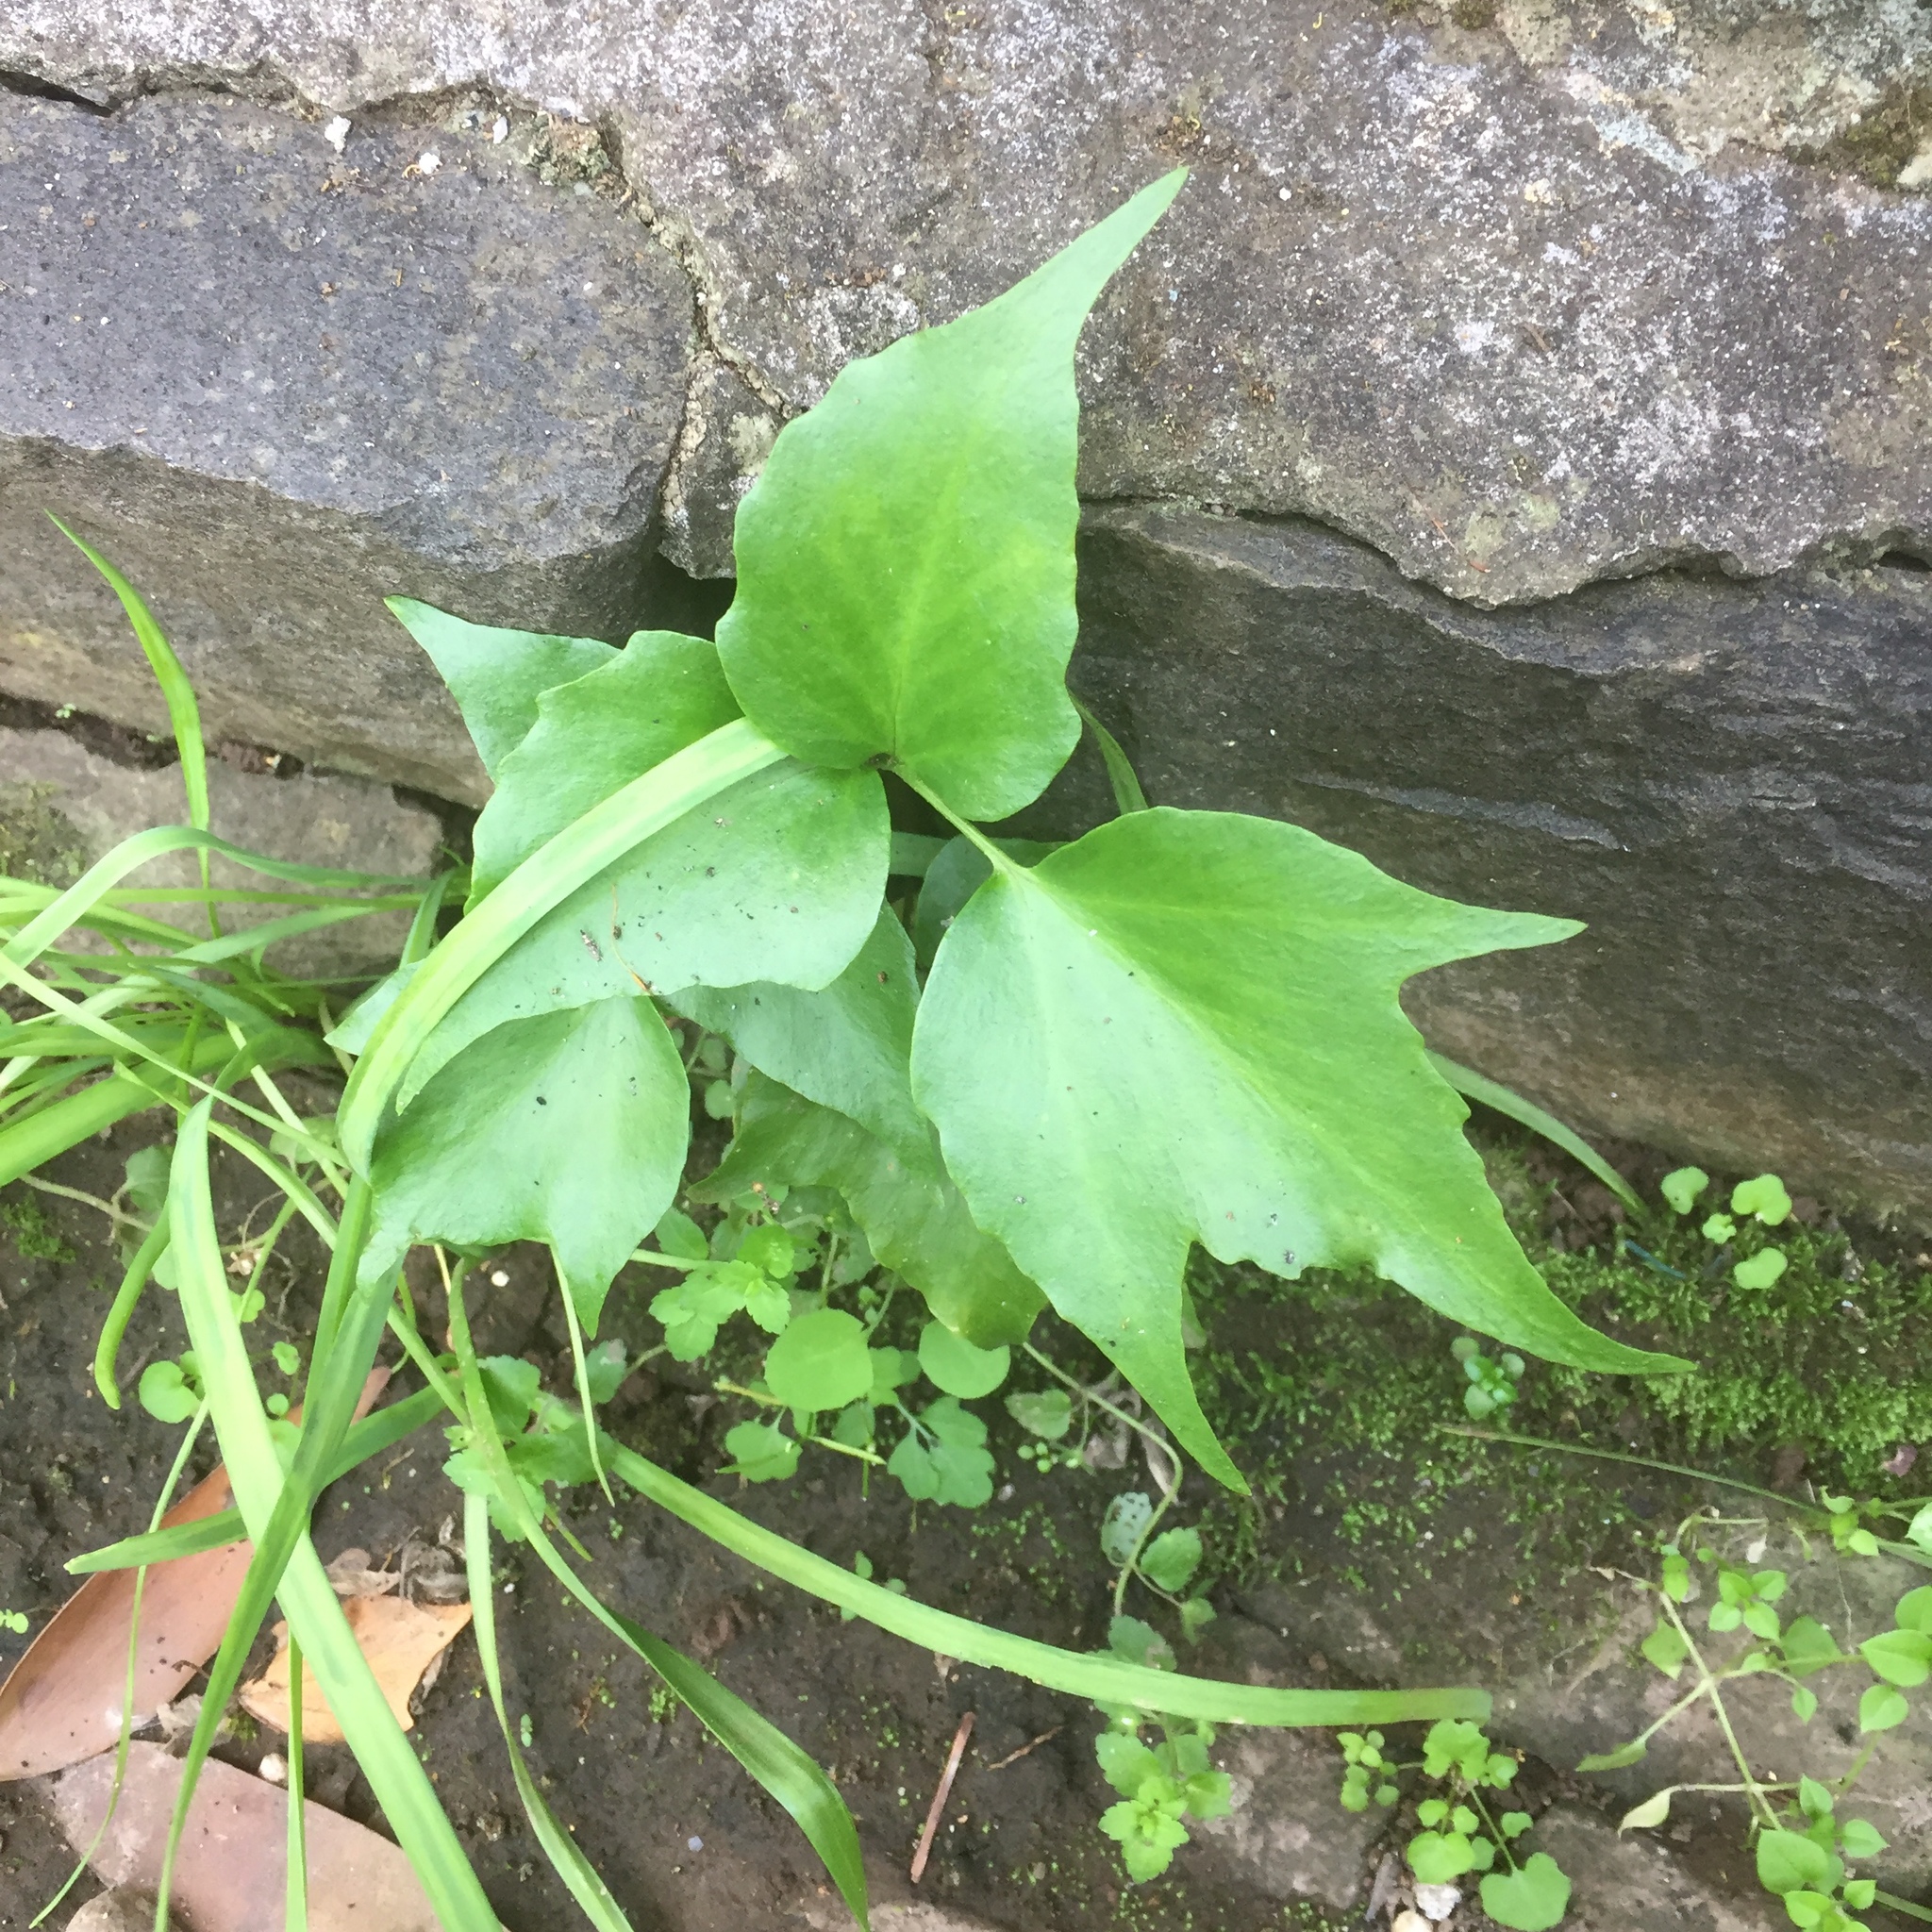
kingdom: Plantae
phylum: Tracheophyta
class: Polypodiopsida
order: Polypodiales
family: Dryopteridaceae
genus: Cyrtomium
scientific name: Cyrtomium falcatum
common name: House holly-fern
